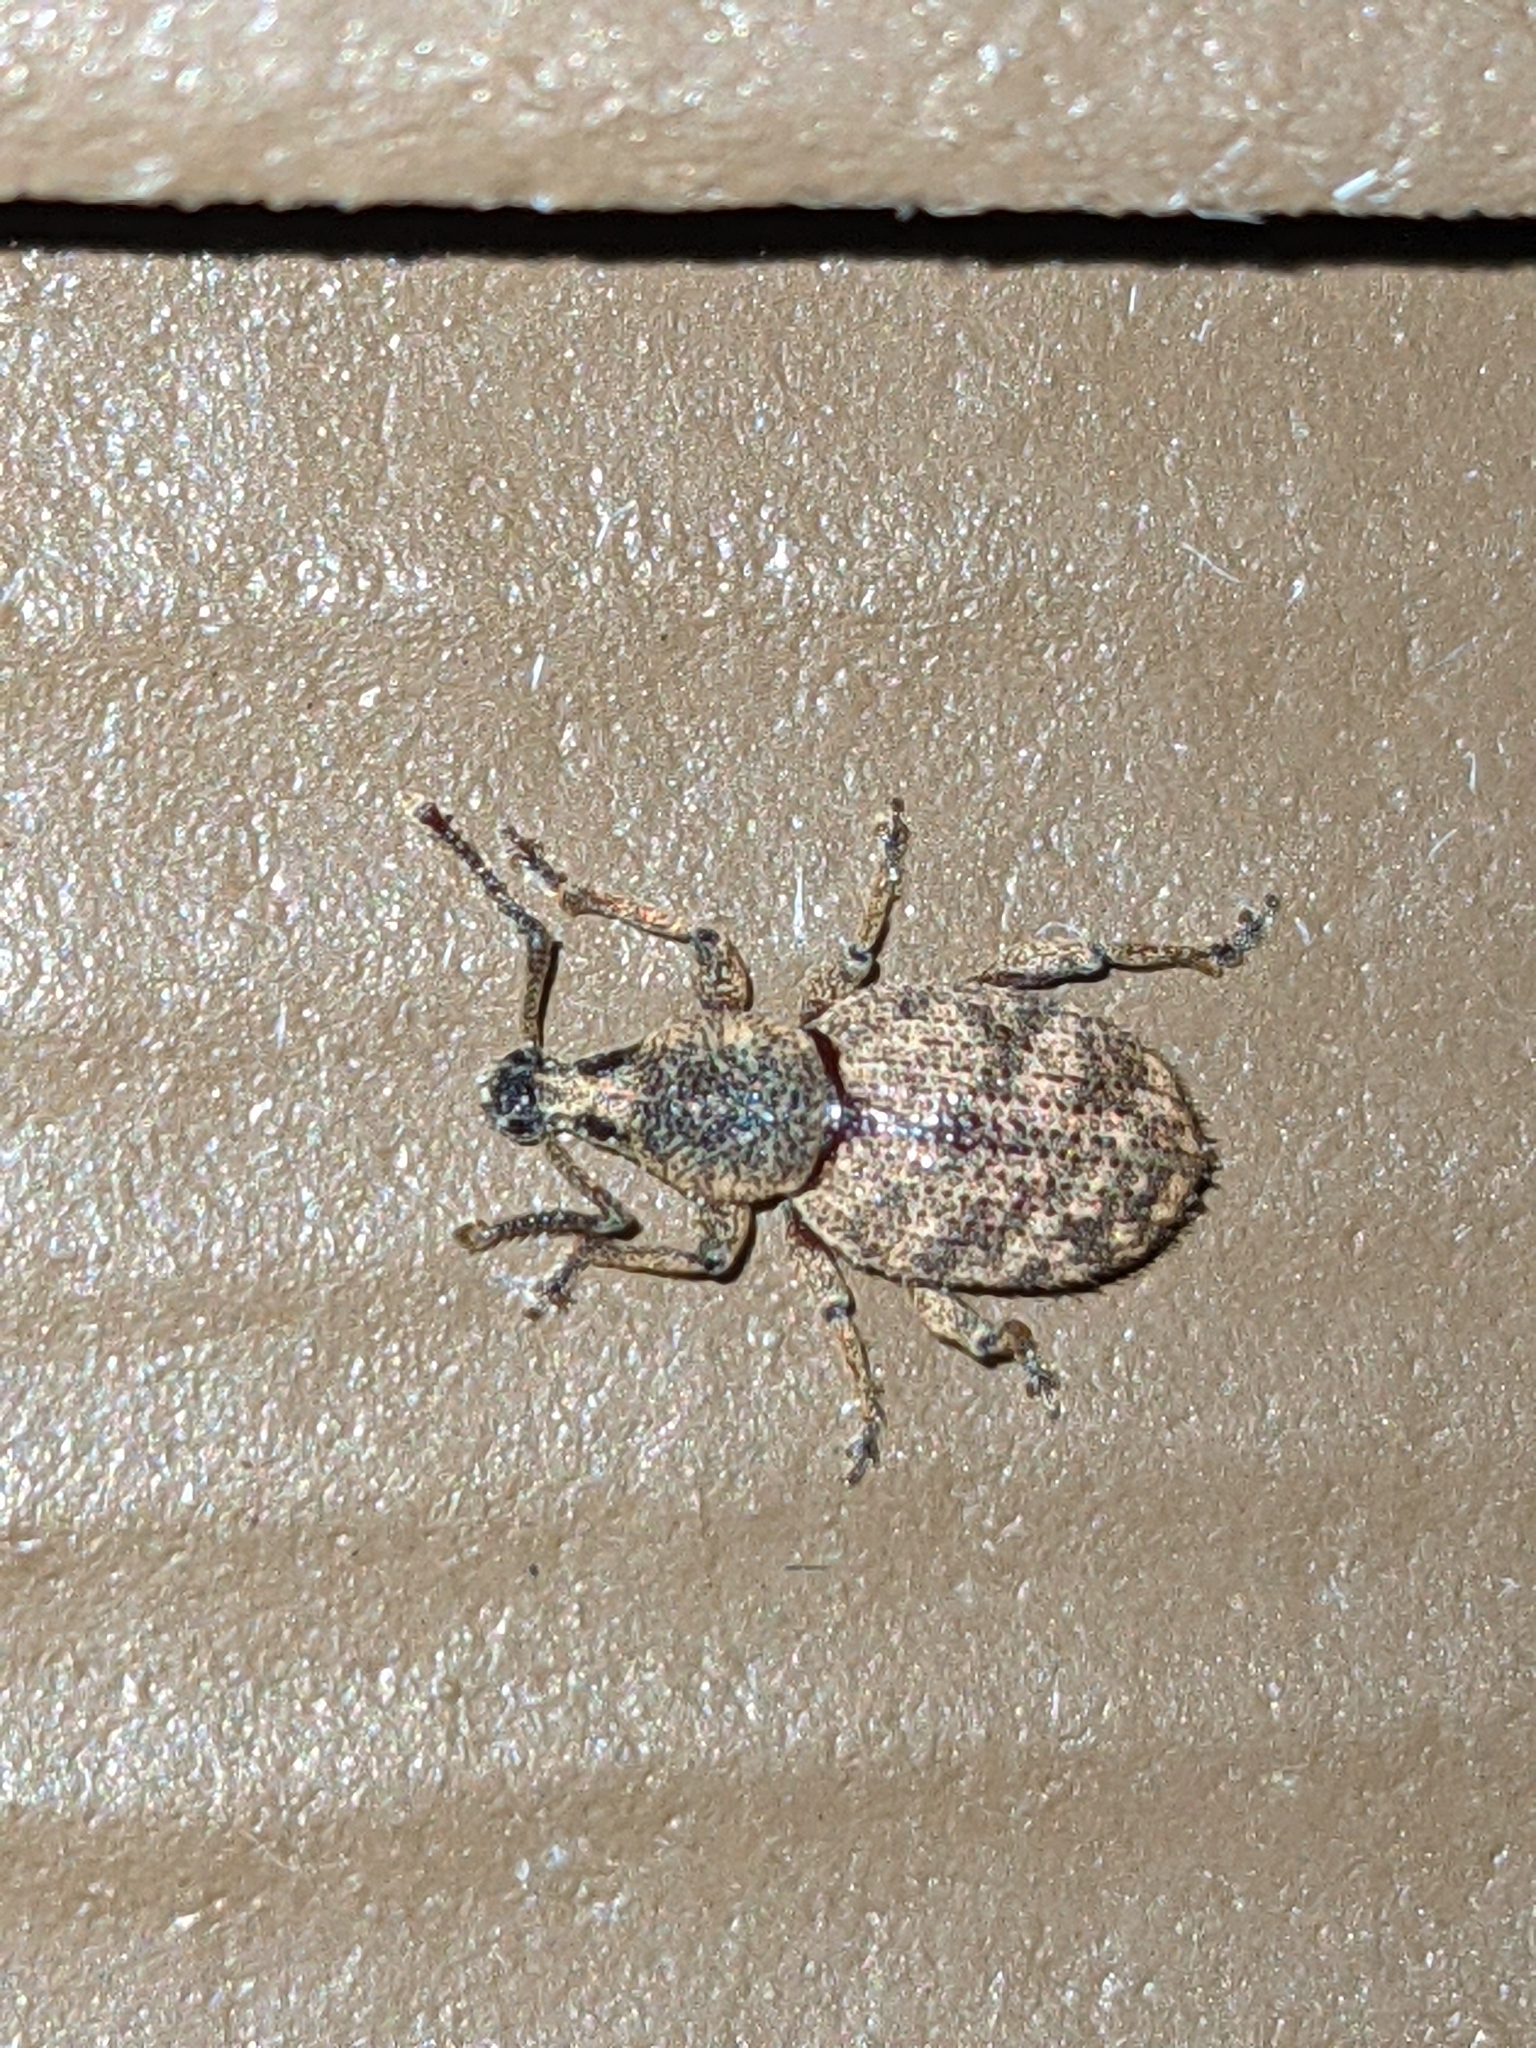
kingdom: Animalia
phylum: Arthropoda
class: Insecta
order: Coleoptera
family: Curculionidae
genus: Otiorhynchus
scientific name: Otiorhynchus singularis
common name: Clay-coloured weevil
